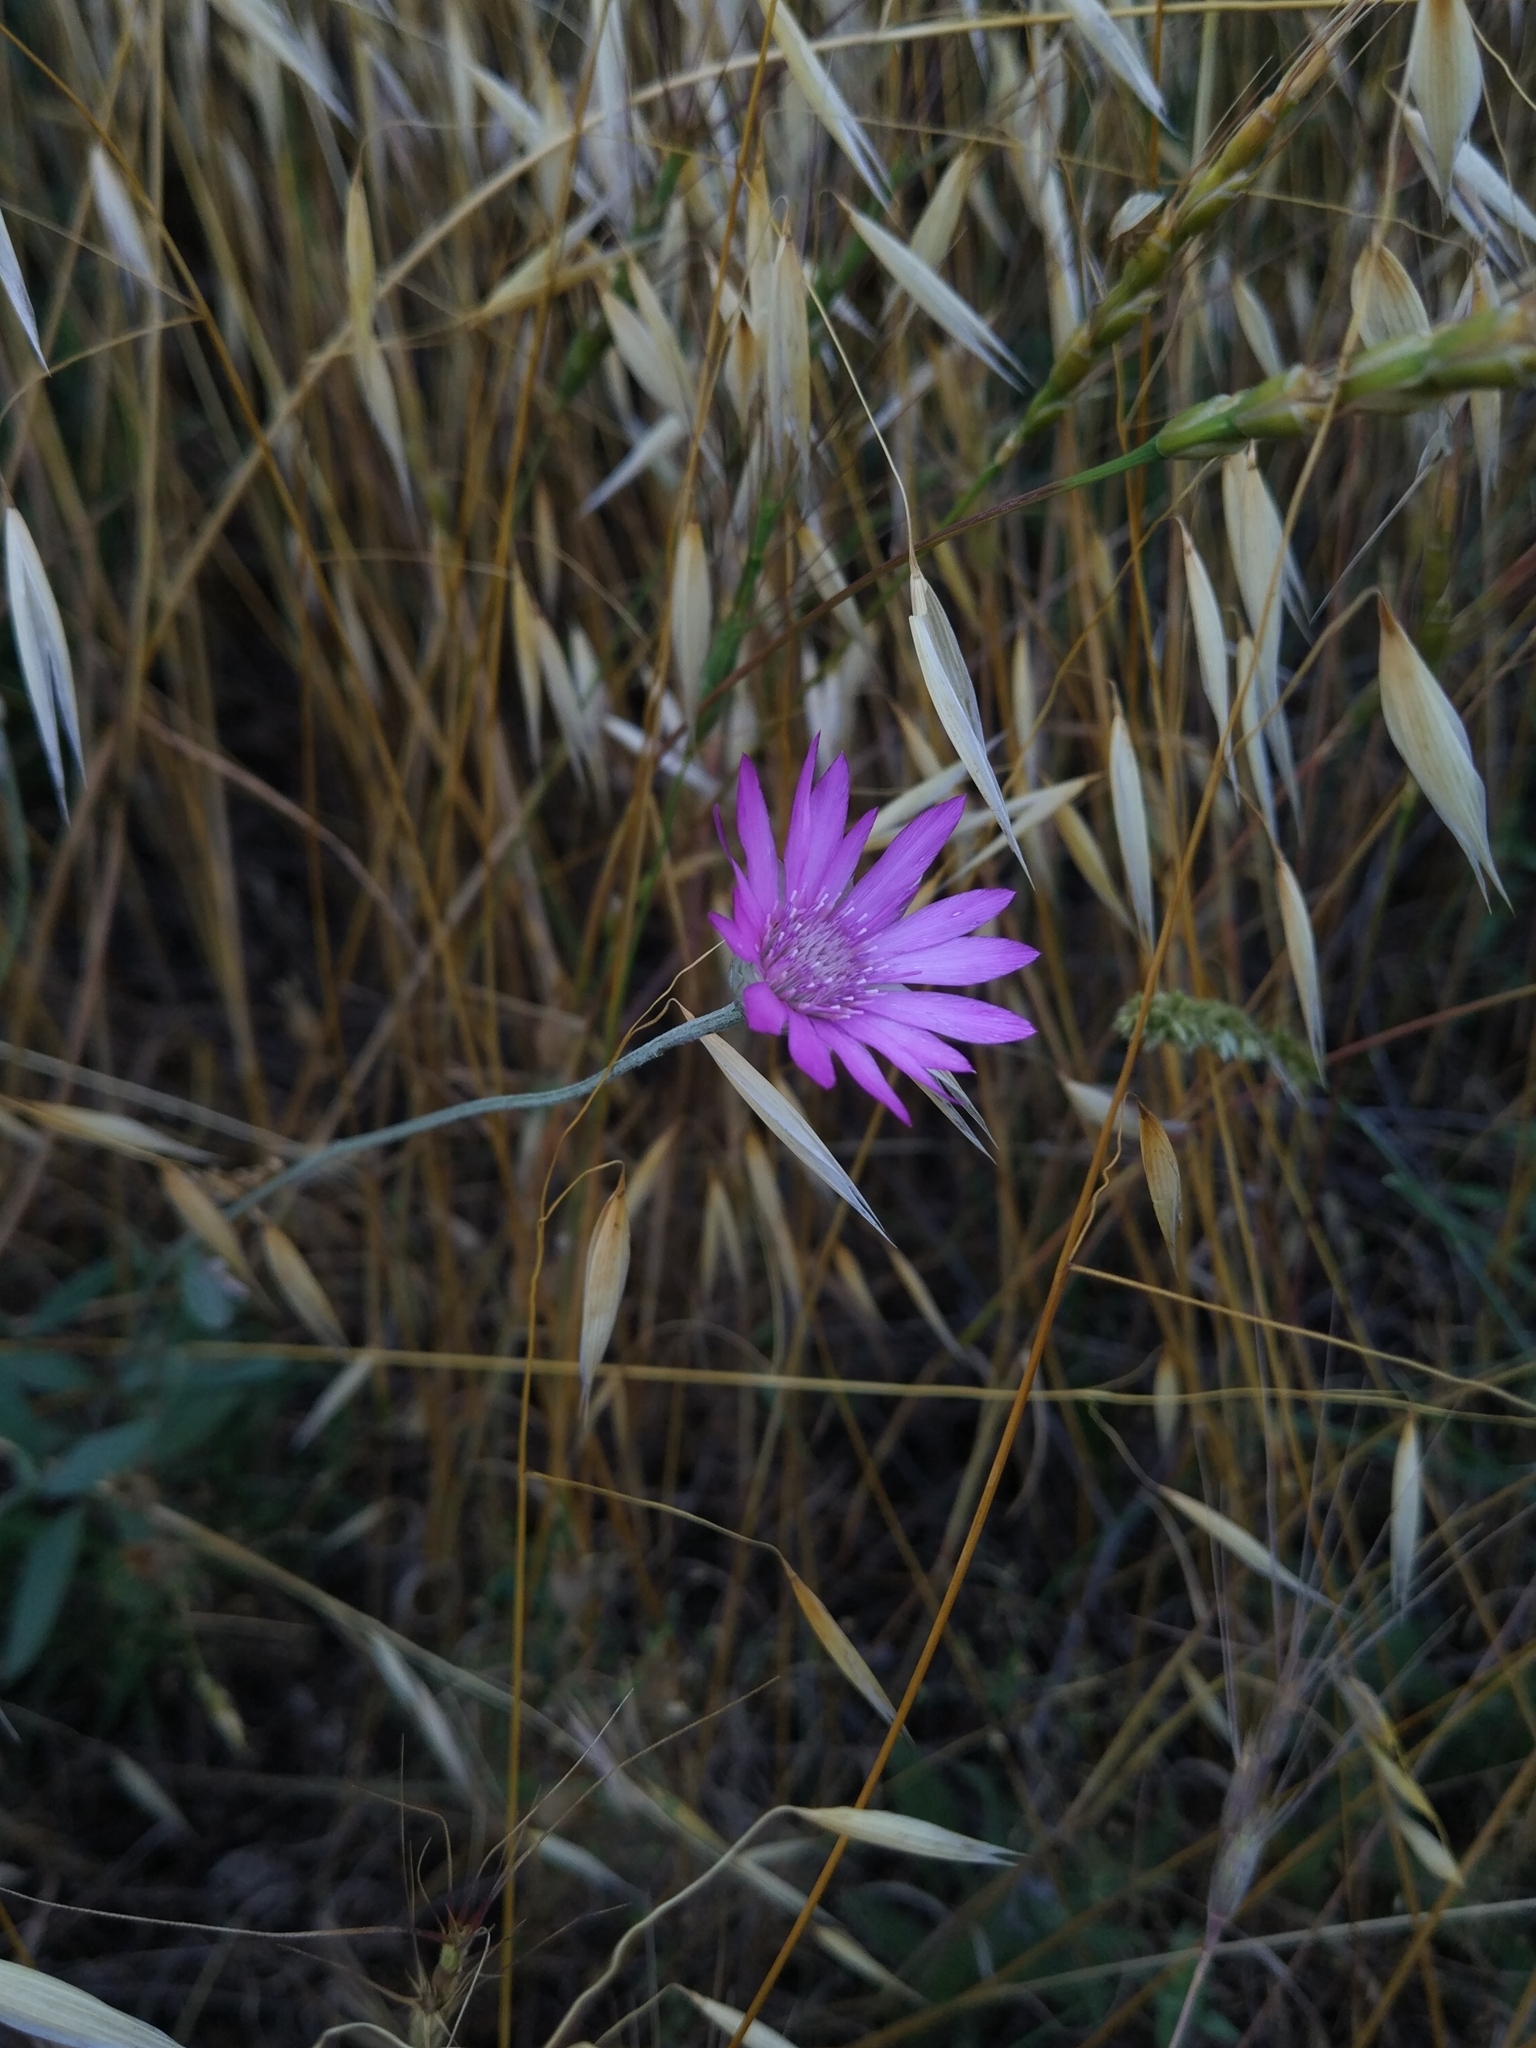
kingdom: Plantae
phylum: Tracheophyta
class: Magnoliopsida
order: Asterales
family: Asteraceae
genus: Xeranthemum
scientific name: Xeranthemum annuum
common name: Immortelle
